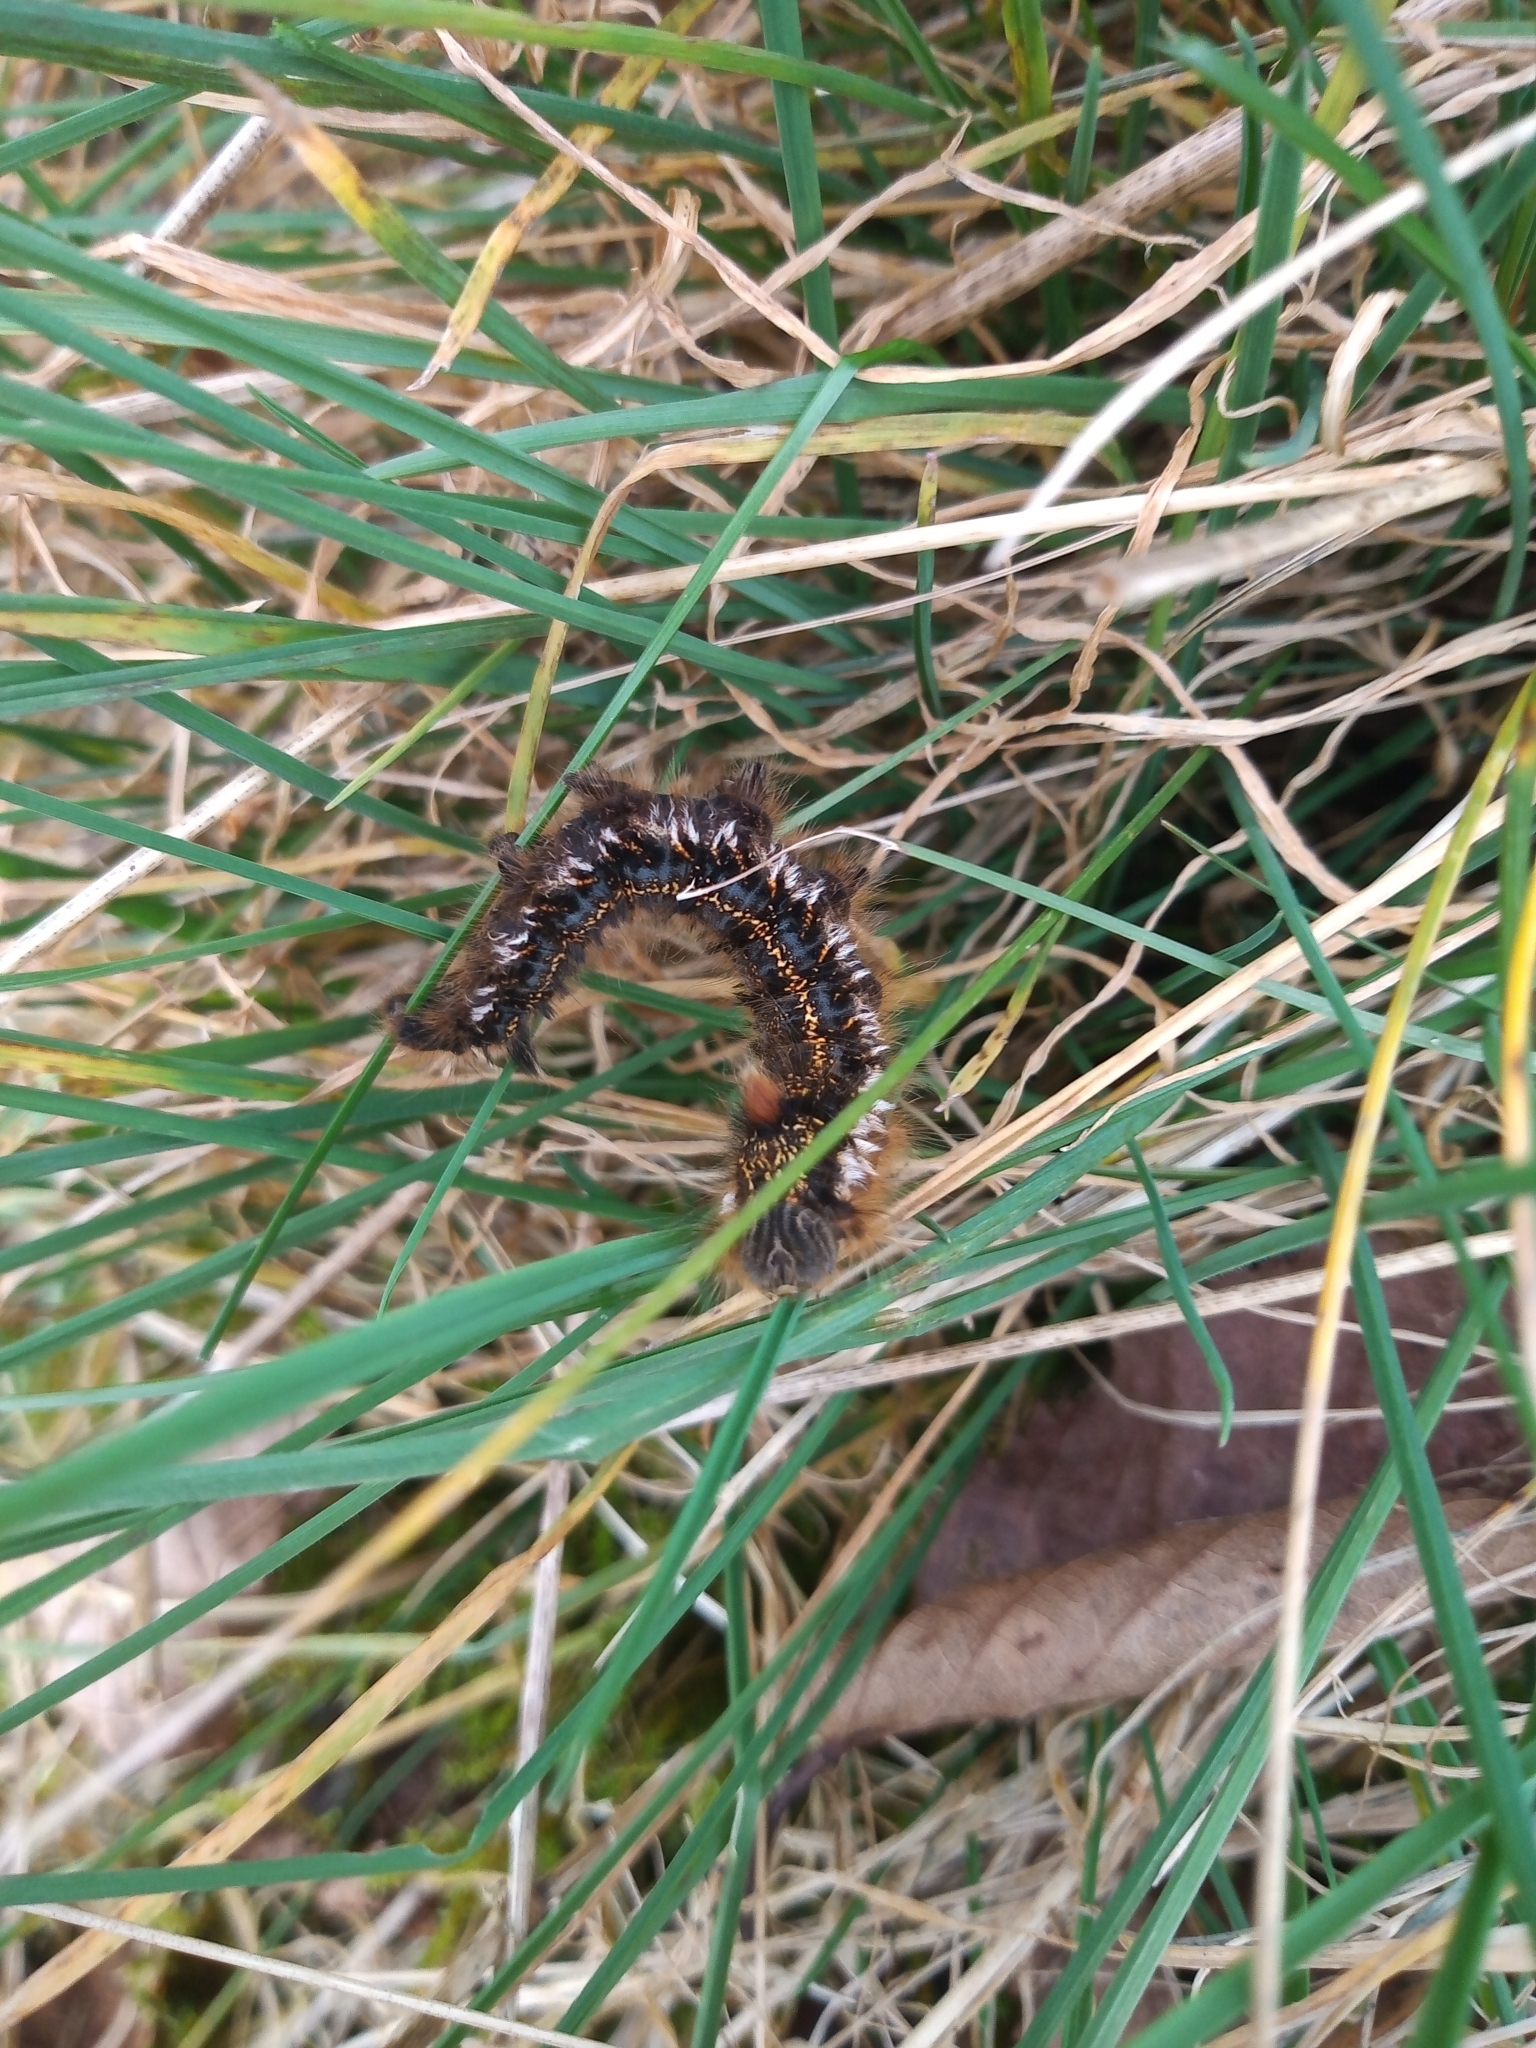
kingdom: Animalia
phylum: Arthropoda
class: Insecta
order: Lepidoptera
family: Lasiocampidae
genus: Euthrix
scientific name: Euthrix potatoria
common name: Drinker
